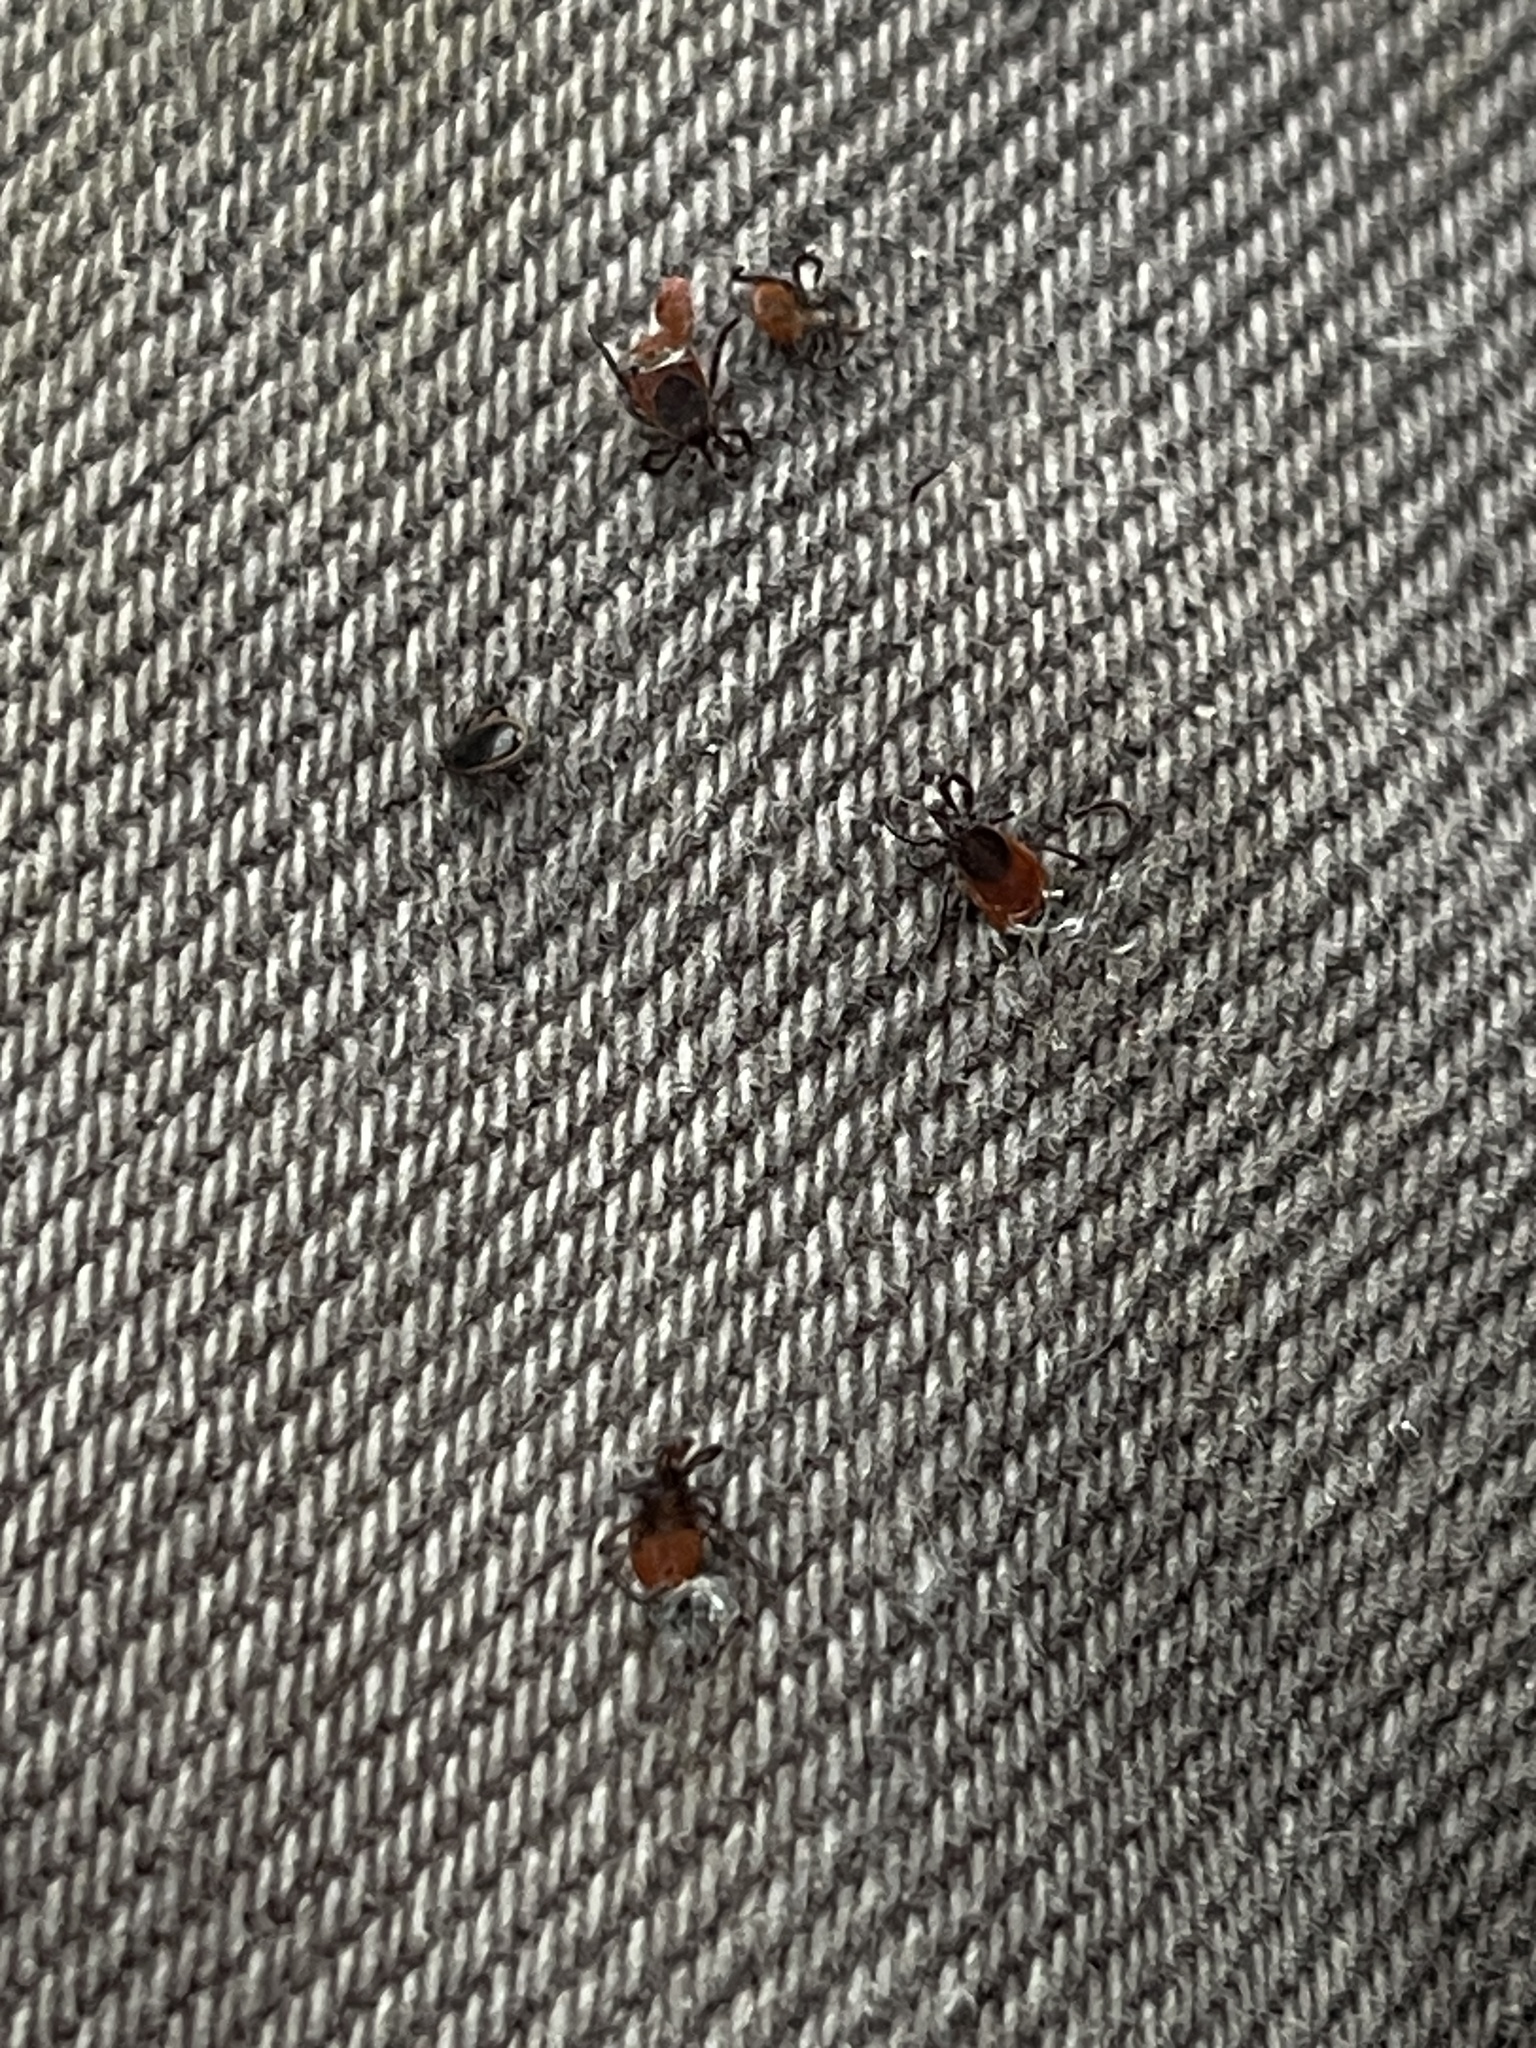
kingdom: Animalia
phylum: Arthropoda
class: Arachnida
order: Ixodida
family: Ixodidae
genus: Ixodes
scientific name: Ixodes scapularis
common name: Black legged tick
